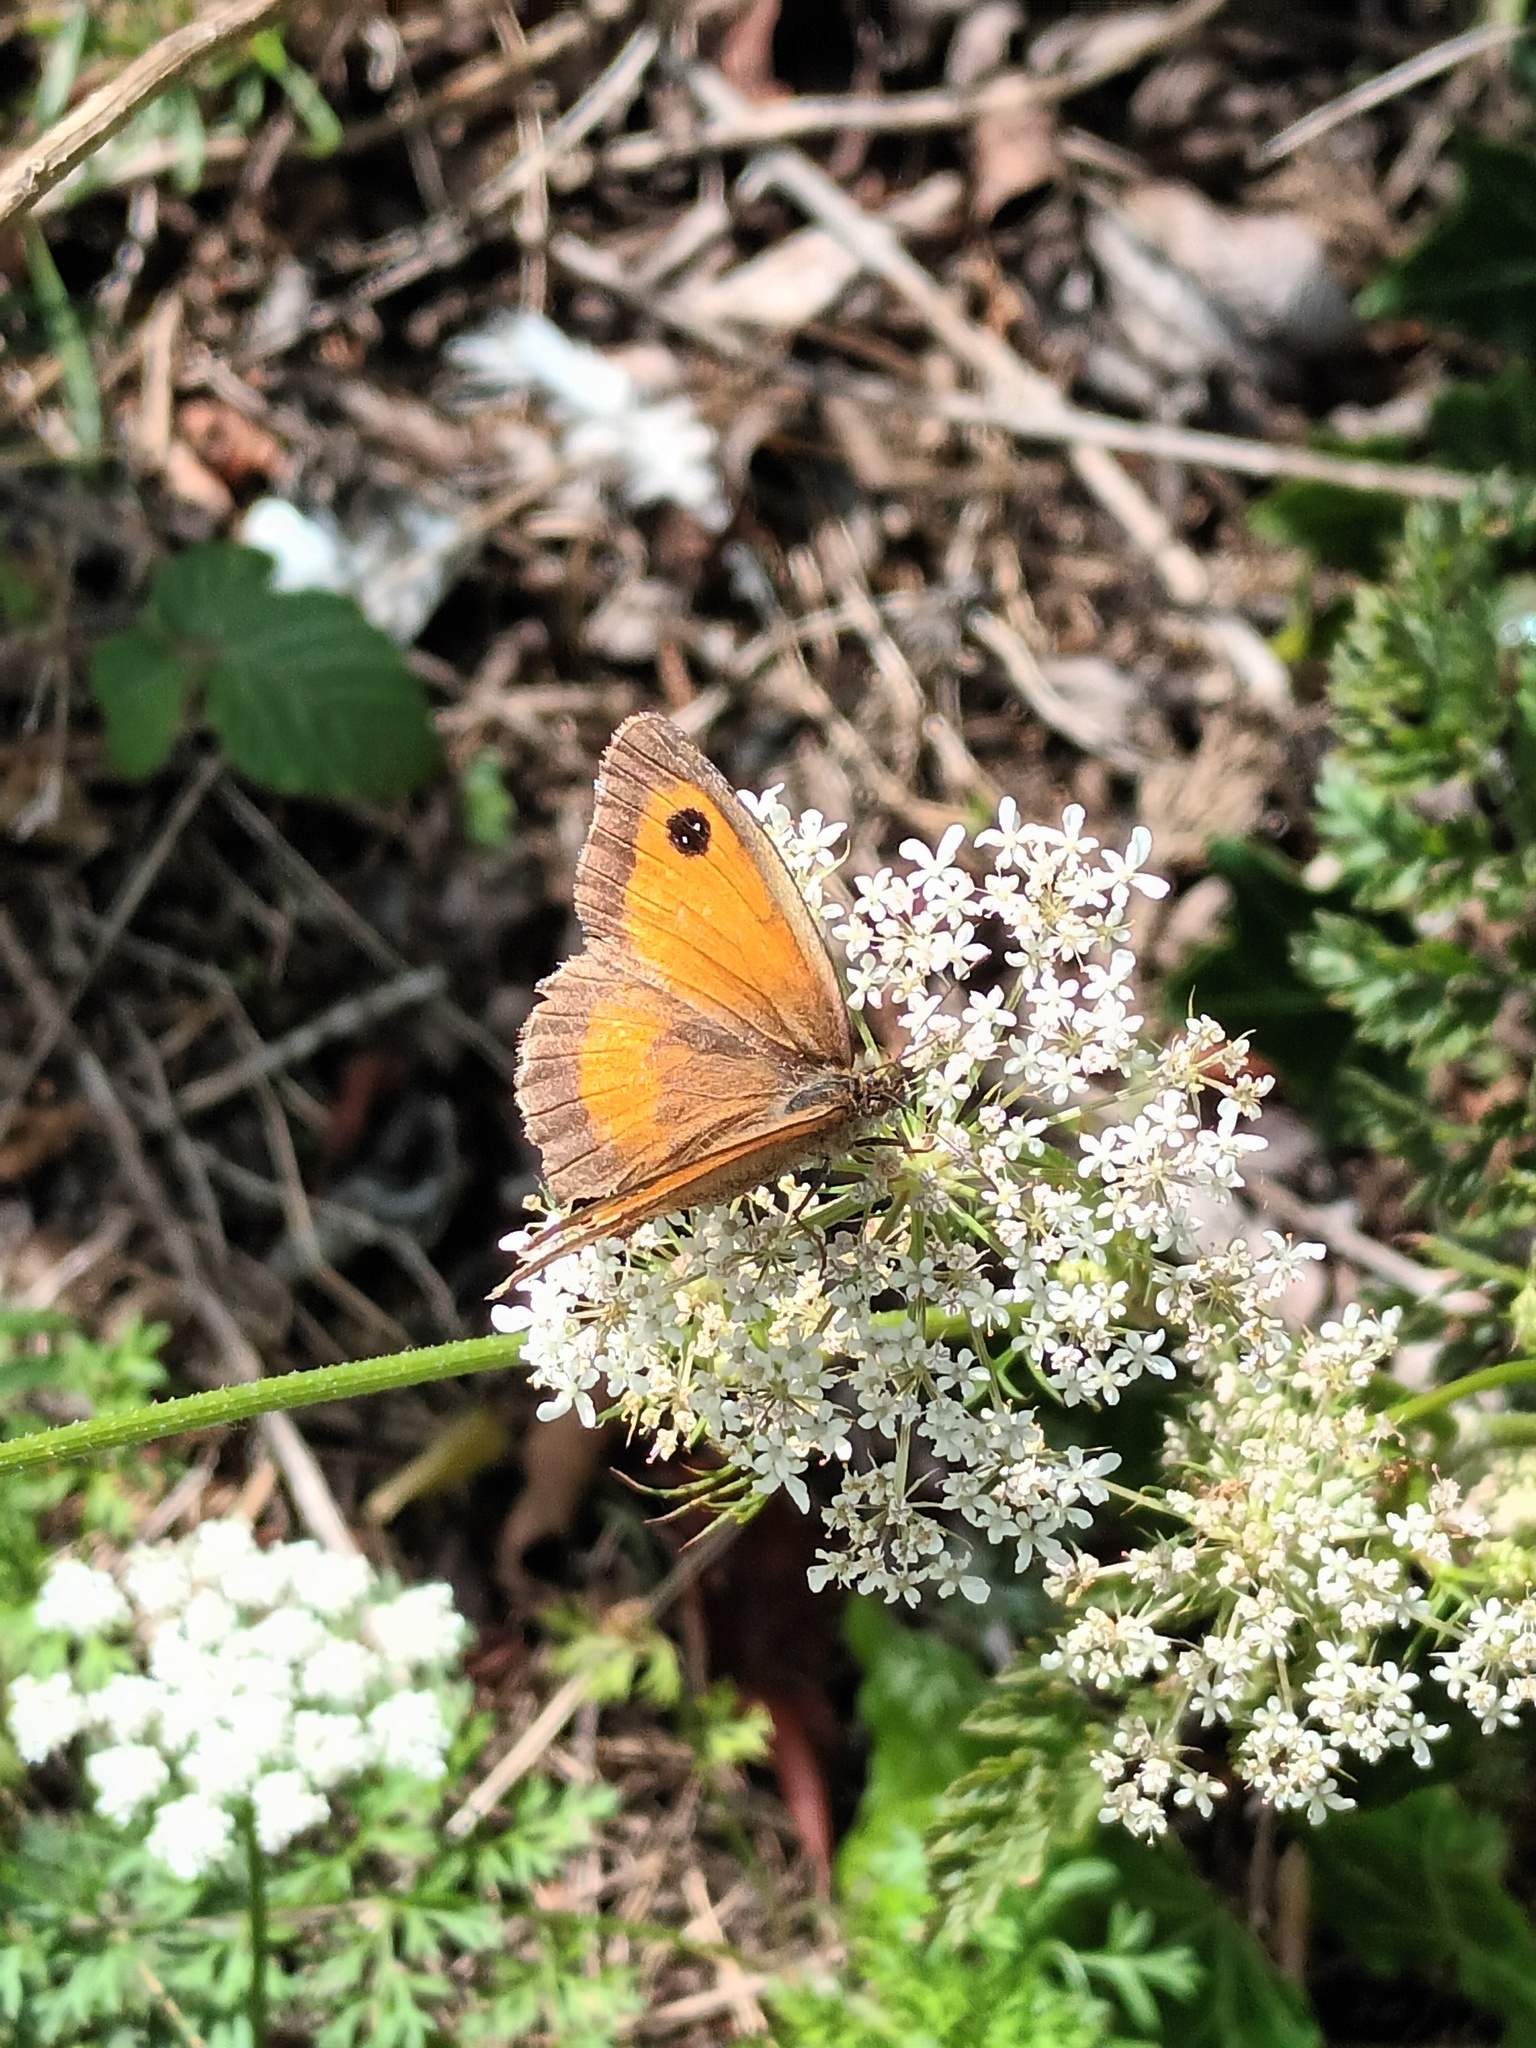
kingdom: Animalia
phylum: Arthropoda
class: Insecta
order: Lepidoptera
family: Nymphalidae
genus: Pyronia
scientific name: Pyronia tithonus
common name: Gatekeeper
